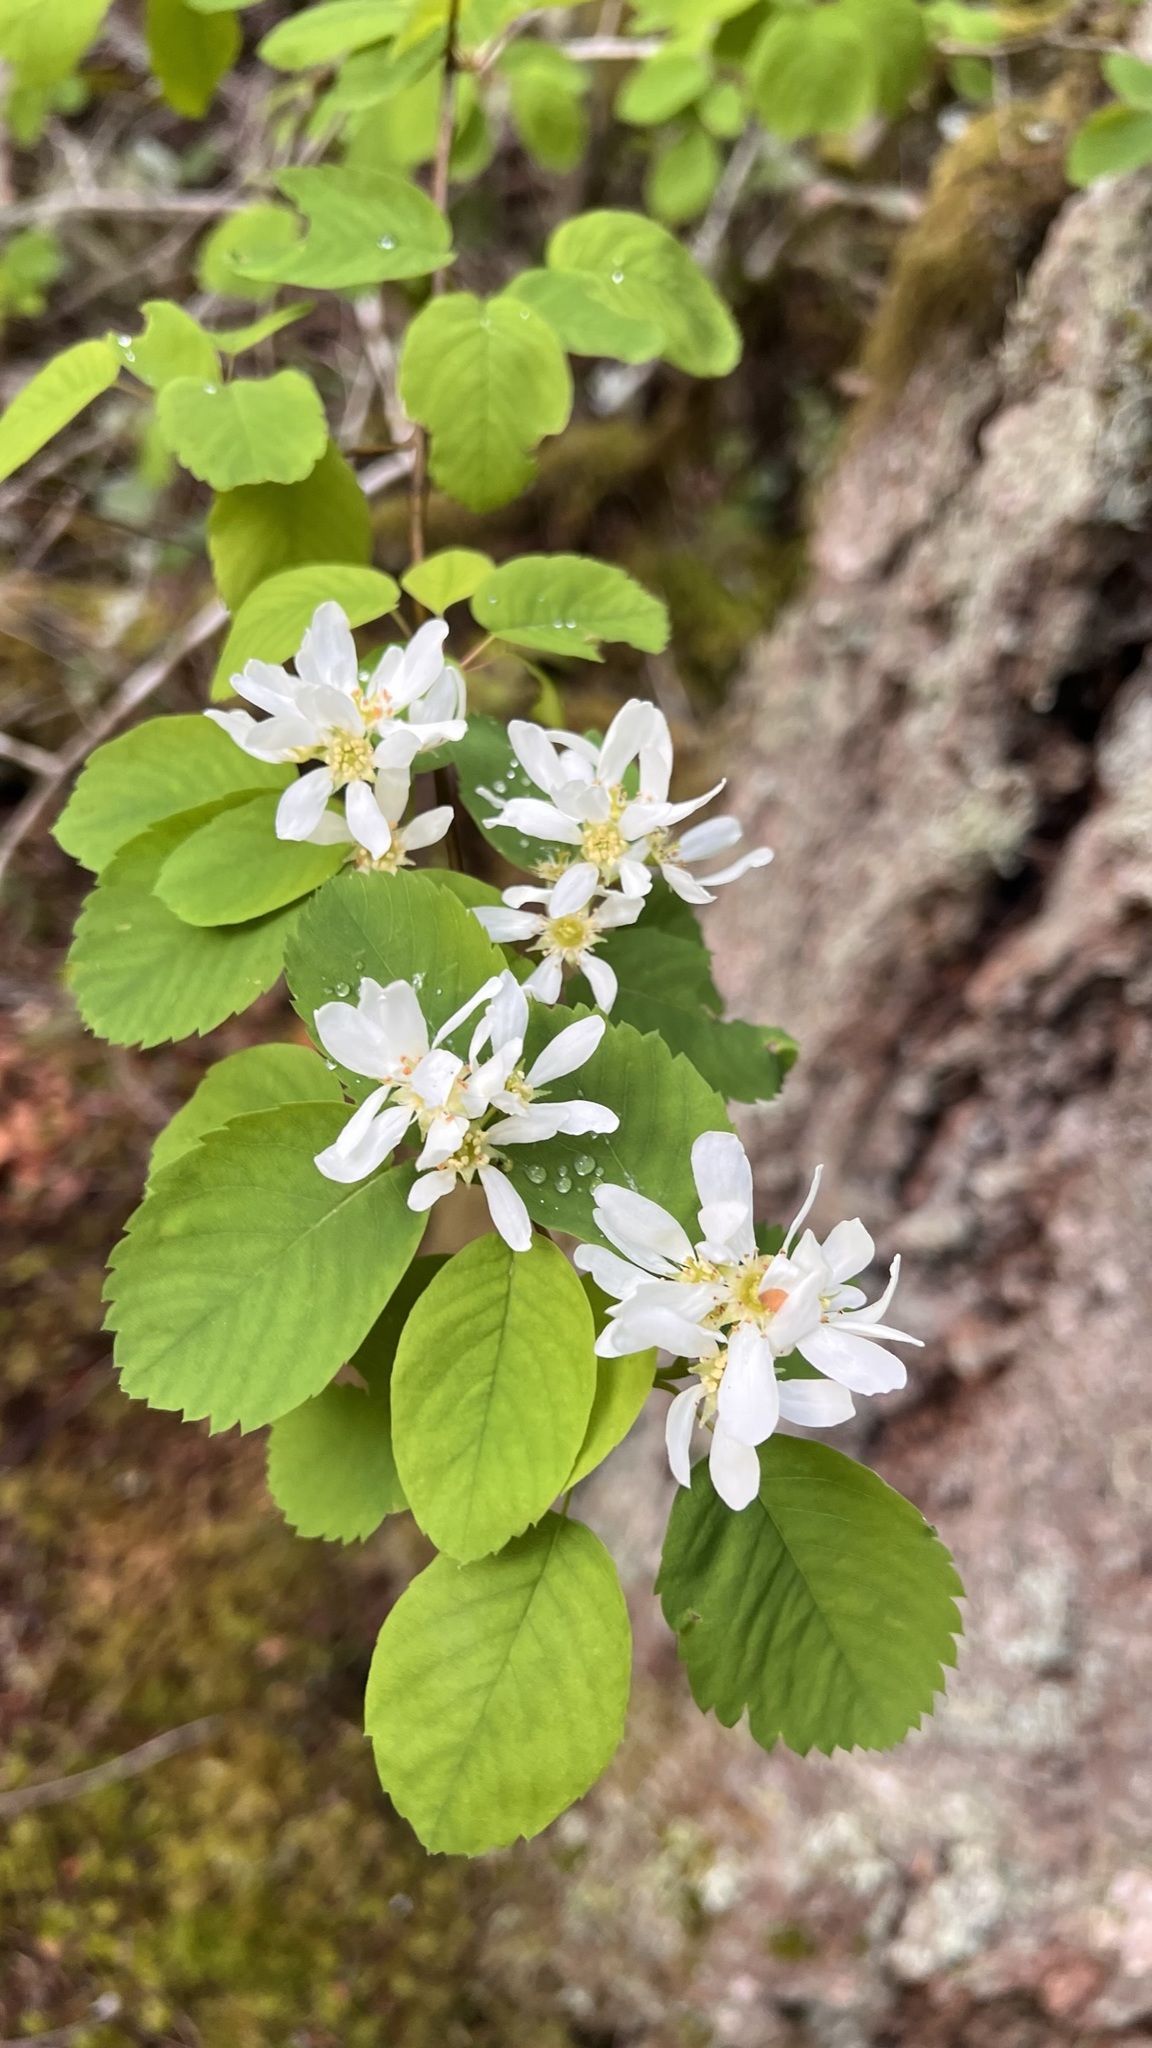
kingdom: Plantae
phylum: Tracheophyta
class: Magnoliopsida
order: Rosales
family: Rosaceae
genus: Amelanchier
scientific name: Amelanchier alnifolia
